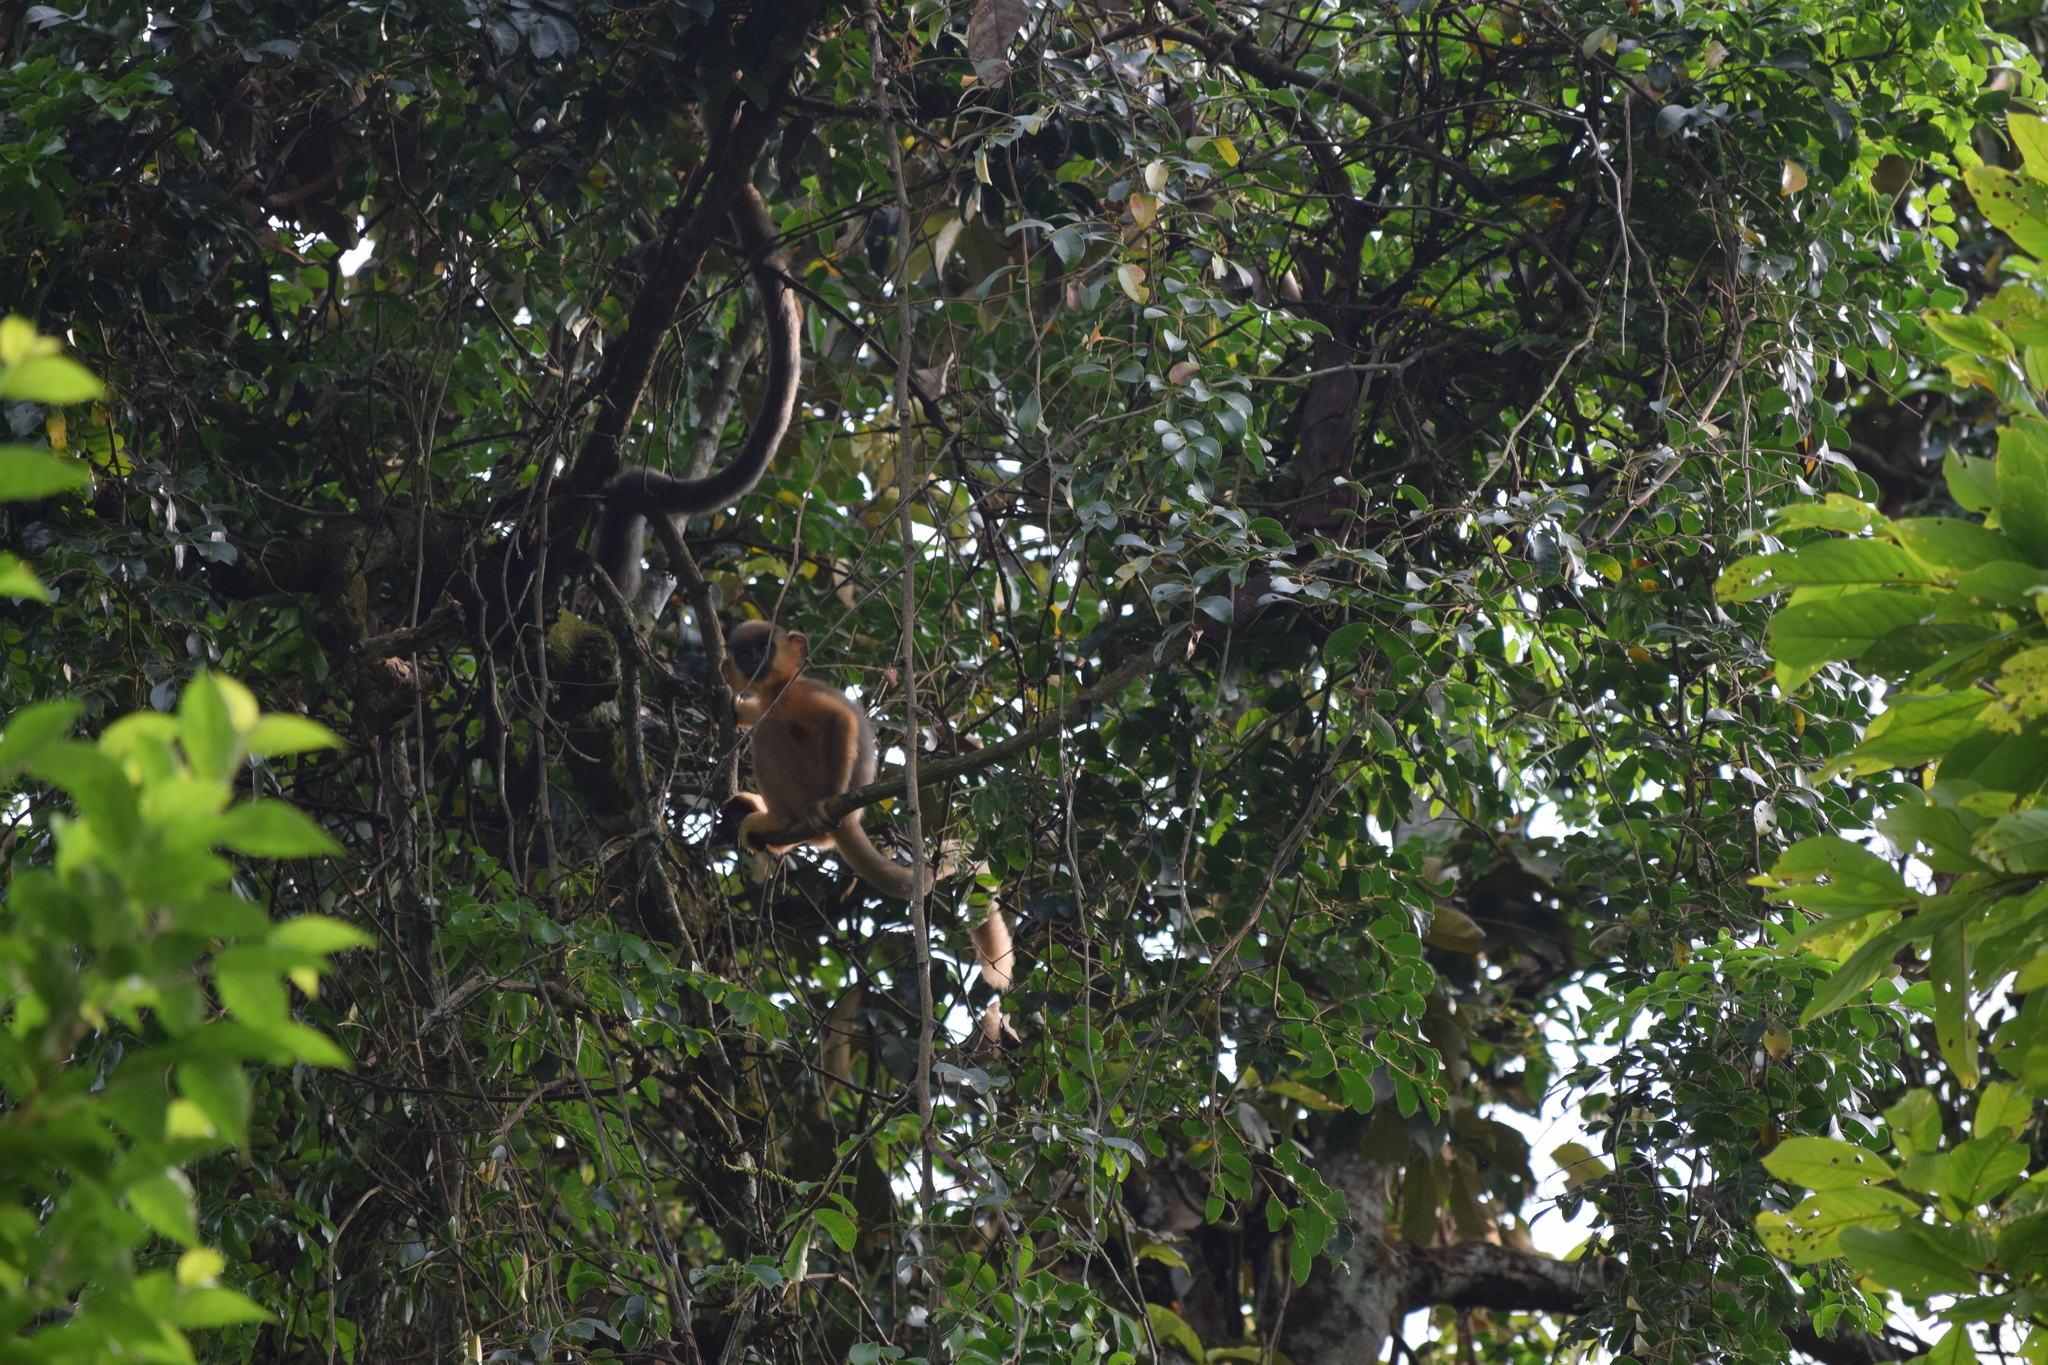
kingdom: Animalia
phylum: Chordata
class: Mammalia
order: Primates
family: Cercopithecidae
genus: Trachypithecus
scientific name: Trachypithecus pileatus
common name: Capped langur
